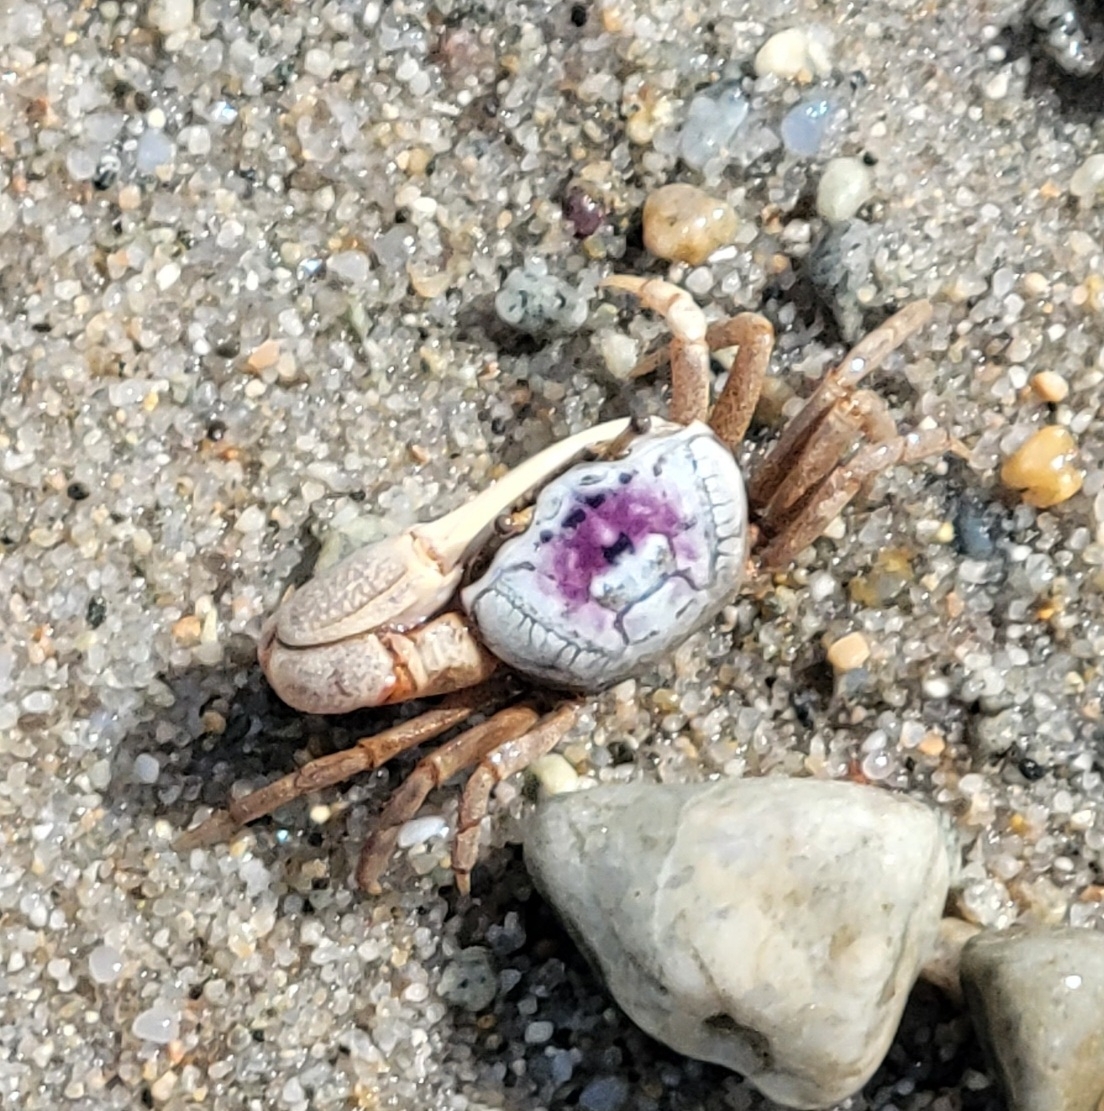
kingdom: Animalia
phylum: Arthropoda
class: Malacostraca
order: Decapoda
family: Ocypodidae
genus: Leptuca
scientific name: Leptuca pugilator
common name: Atlantic sand fiddler crab
